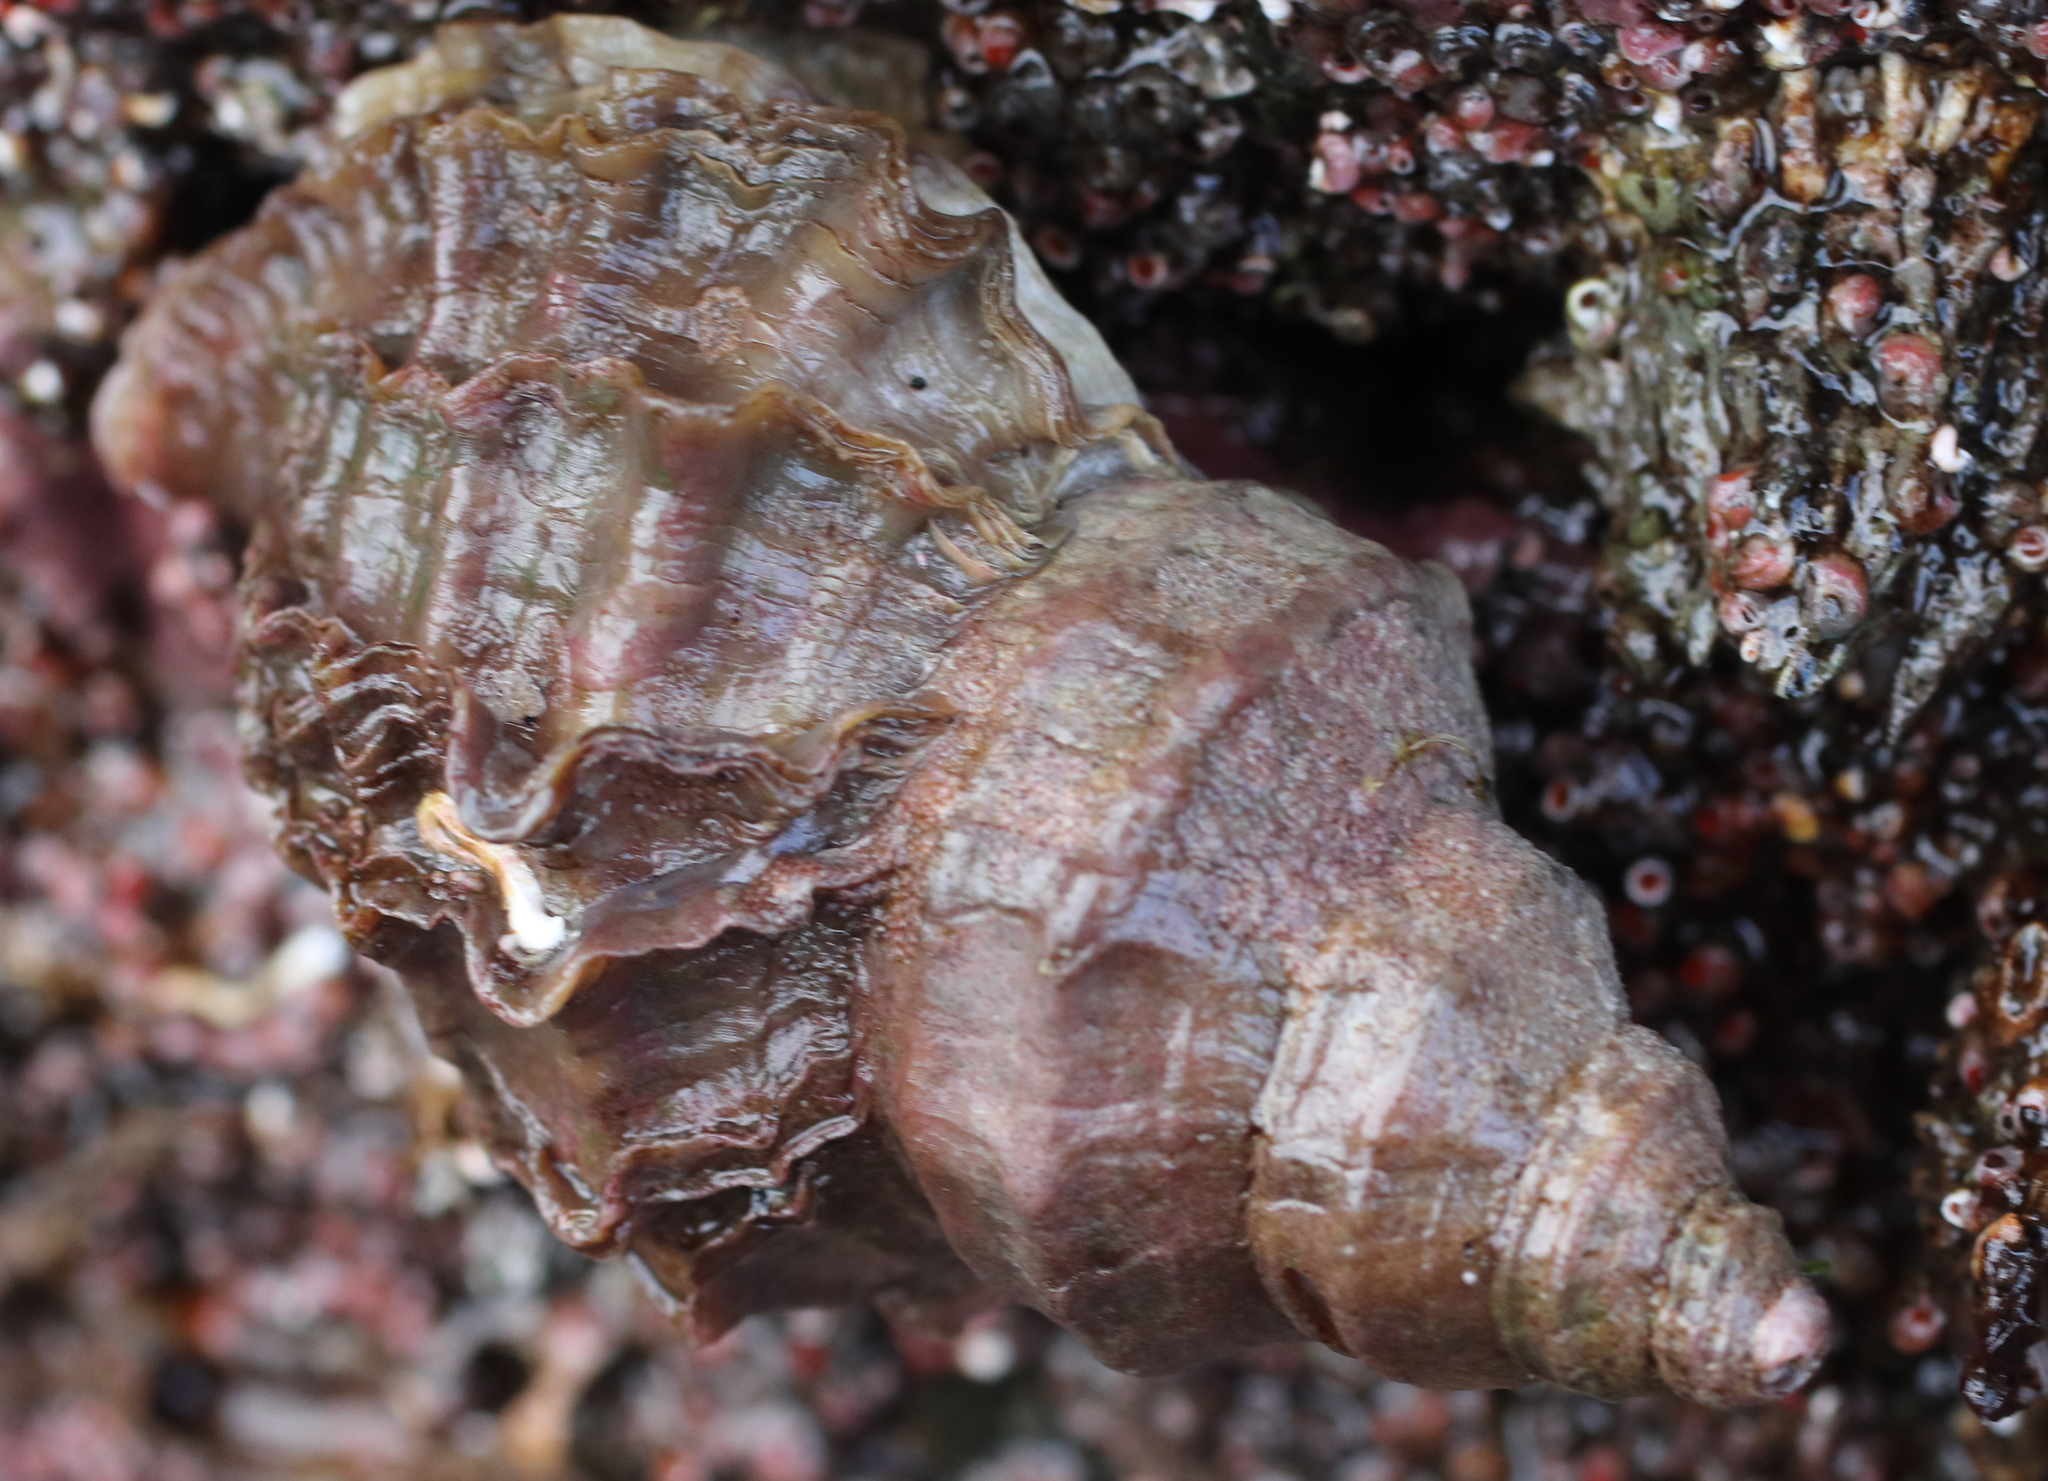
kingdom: Animalia
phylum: Mollusca
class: Gastropoda
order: Neogastropoda
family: Muricidae
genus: Nucella
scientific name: Nucella lamellosa
